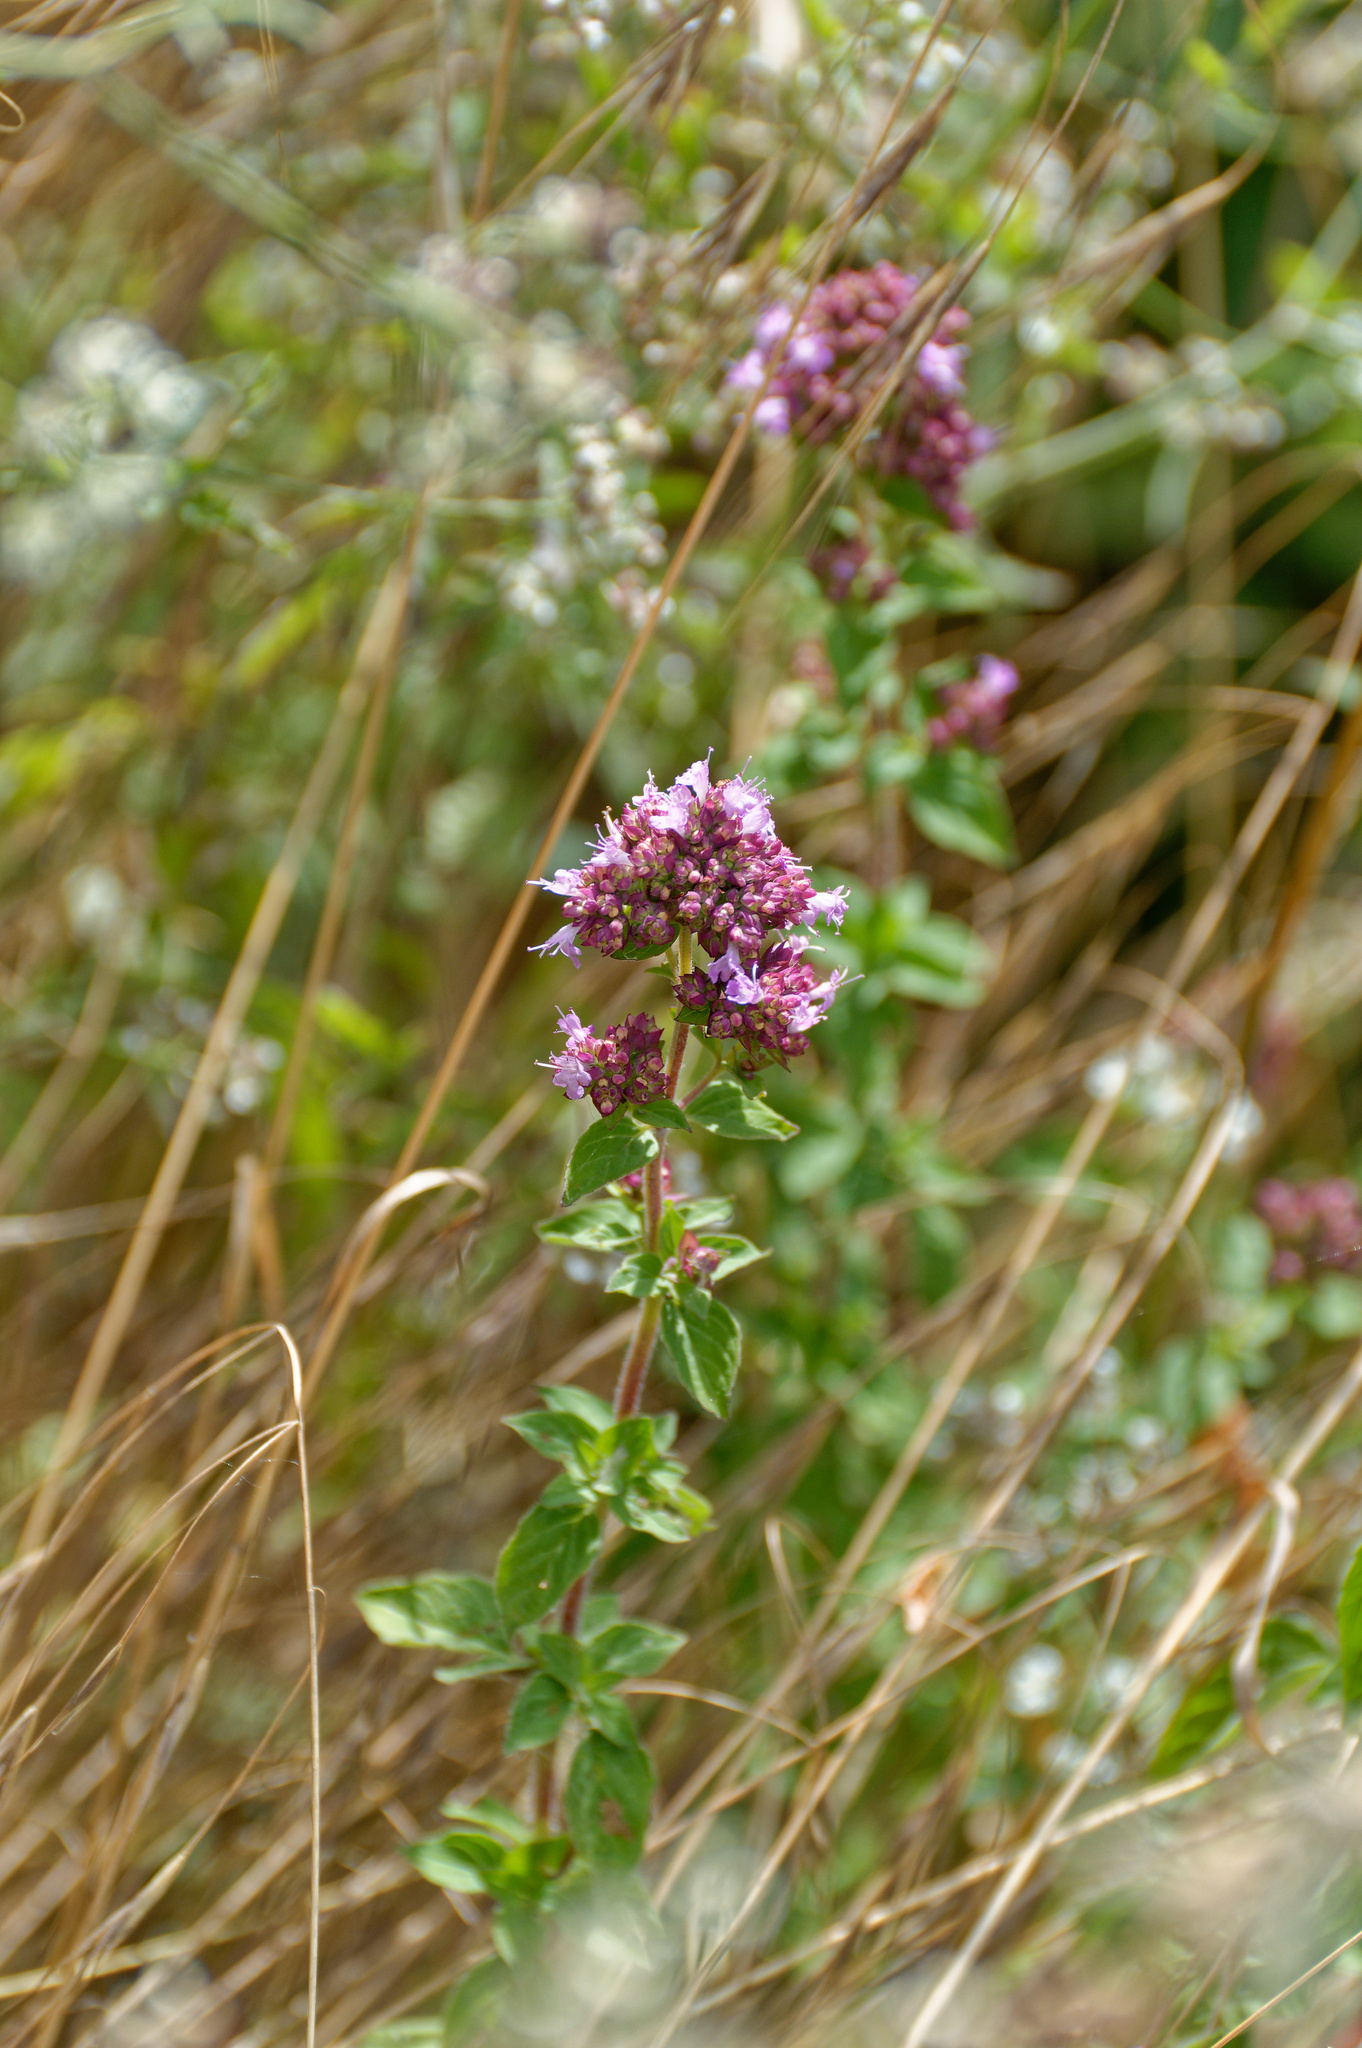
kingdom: Plantae
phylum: Tracheophyta
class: Magnoliopsida
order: Lamiales
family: Lamiaceae
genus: Origanum
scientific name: Origanum vulgare
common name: Wild marjoram
